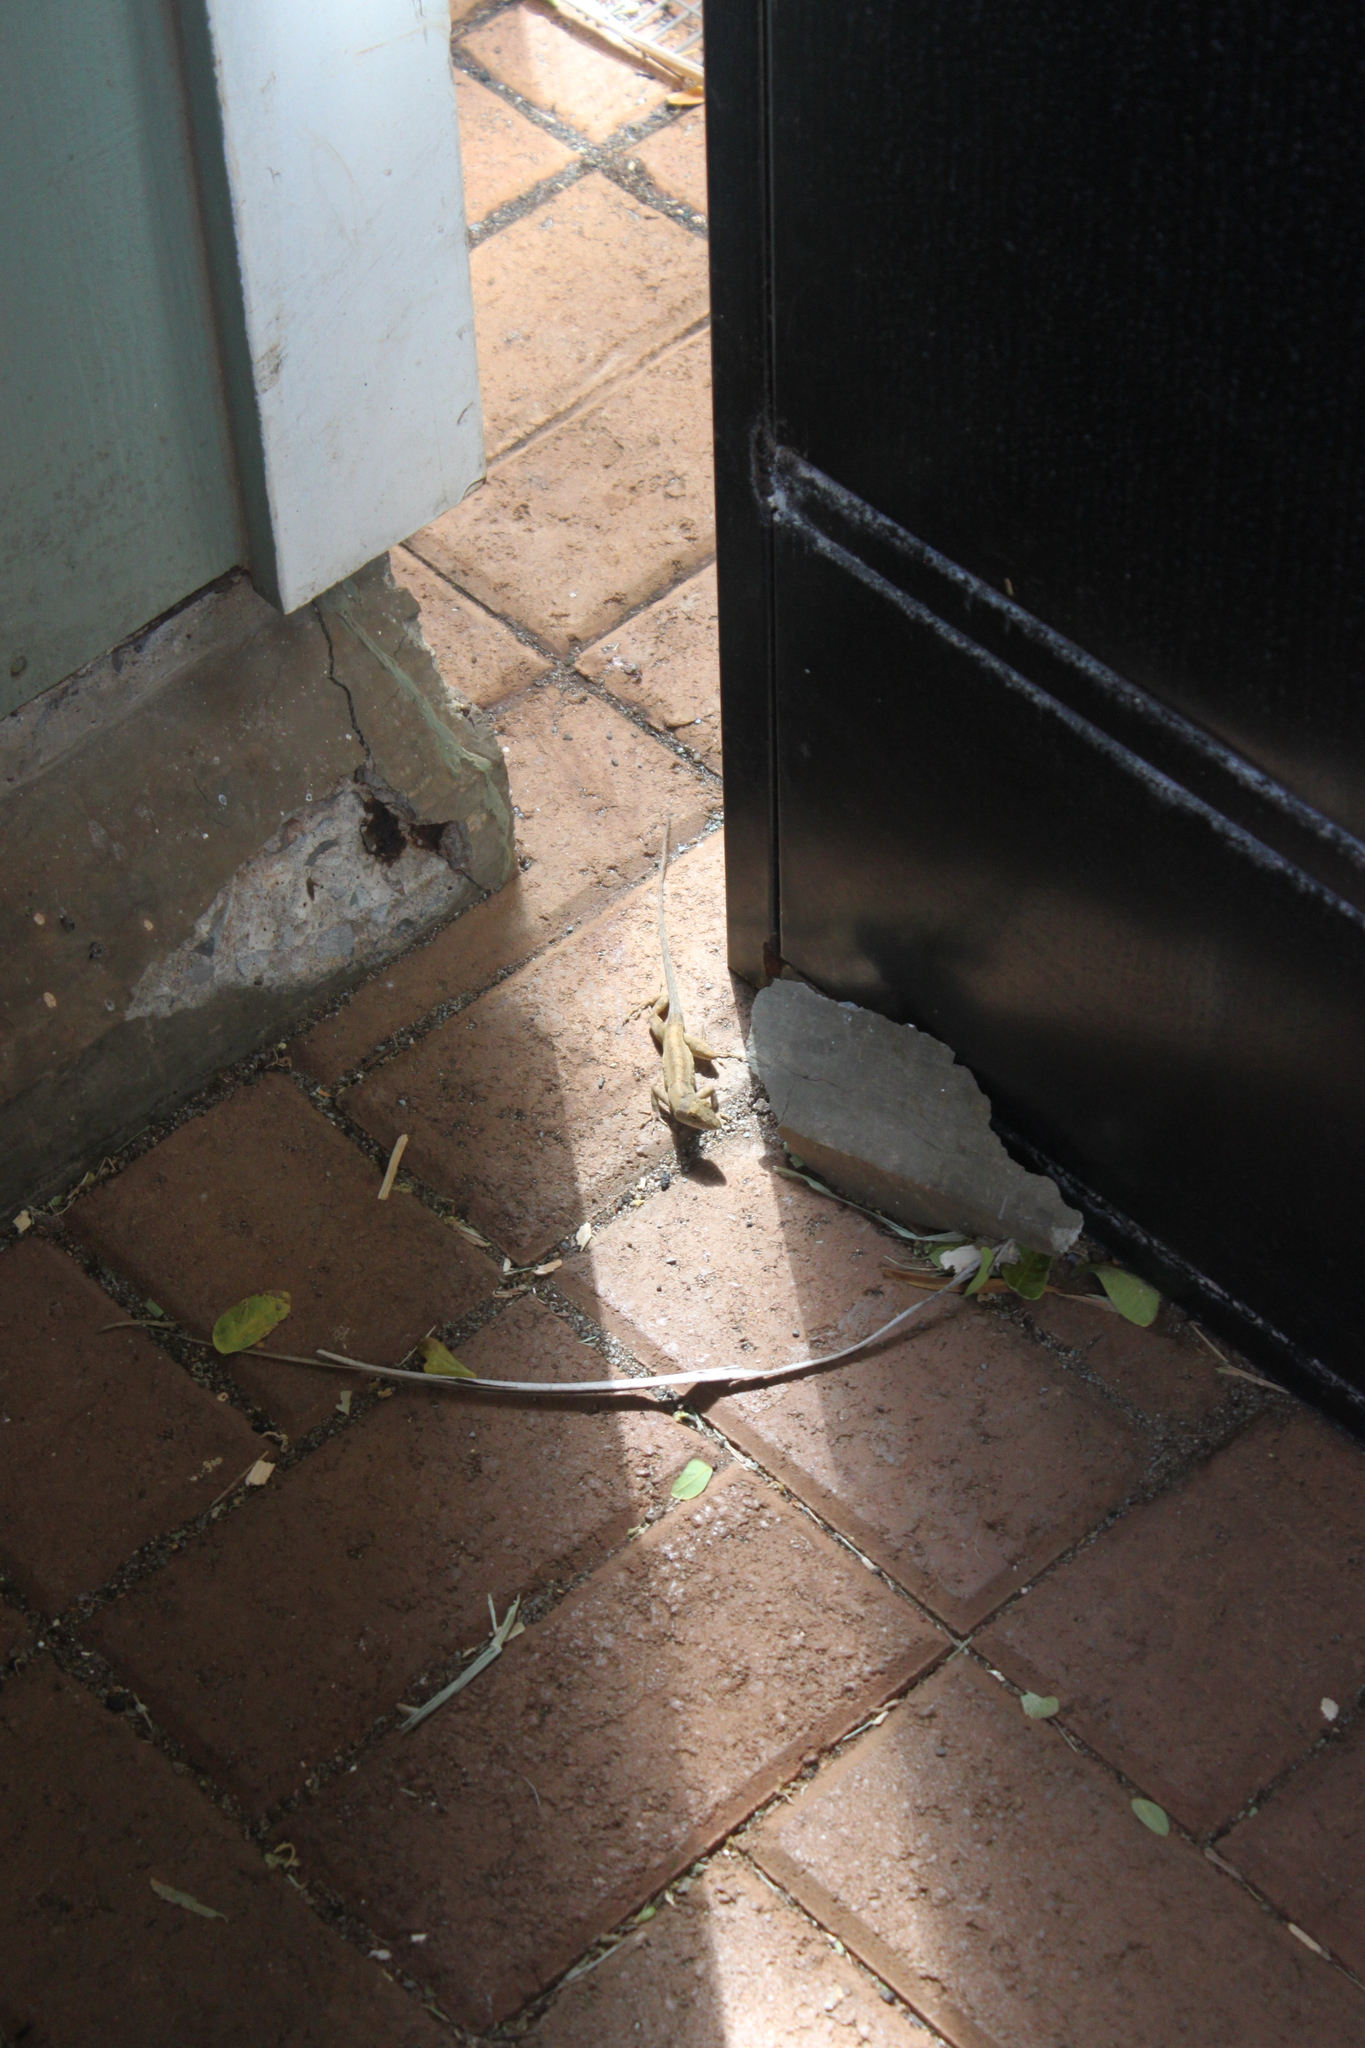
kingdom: Animalia
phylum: Chordata
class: Squamata
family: Dactyloidae
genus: Anolis
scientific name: Anolis sagrei
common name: Brown anole
